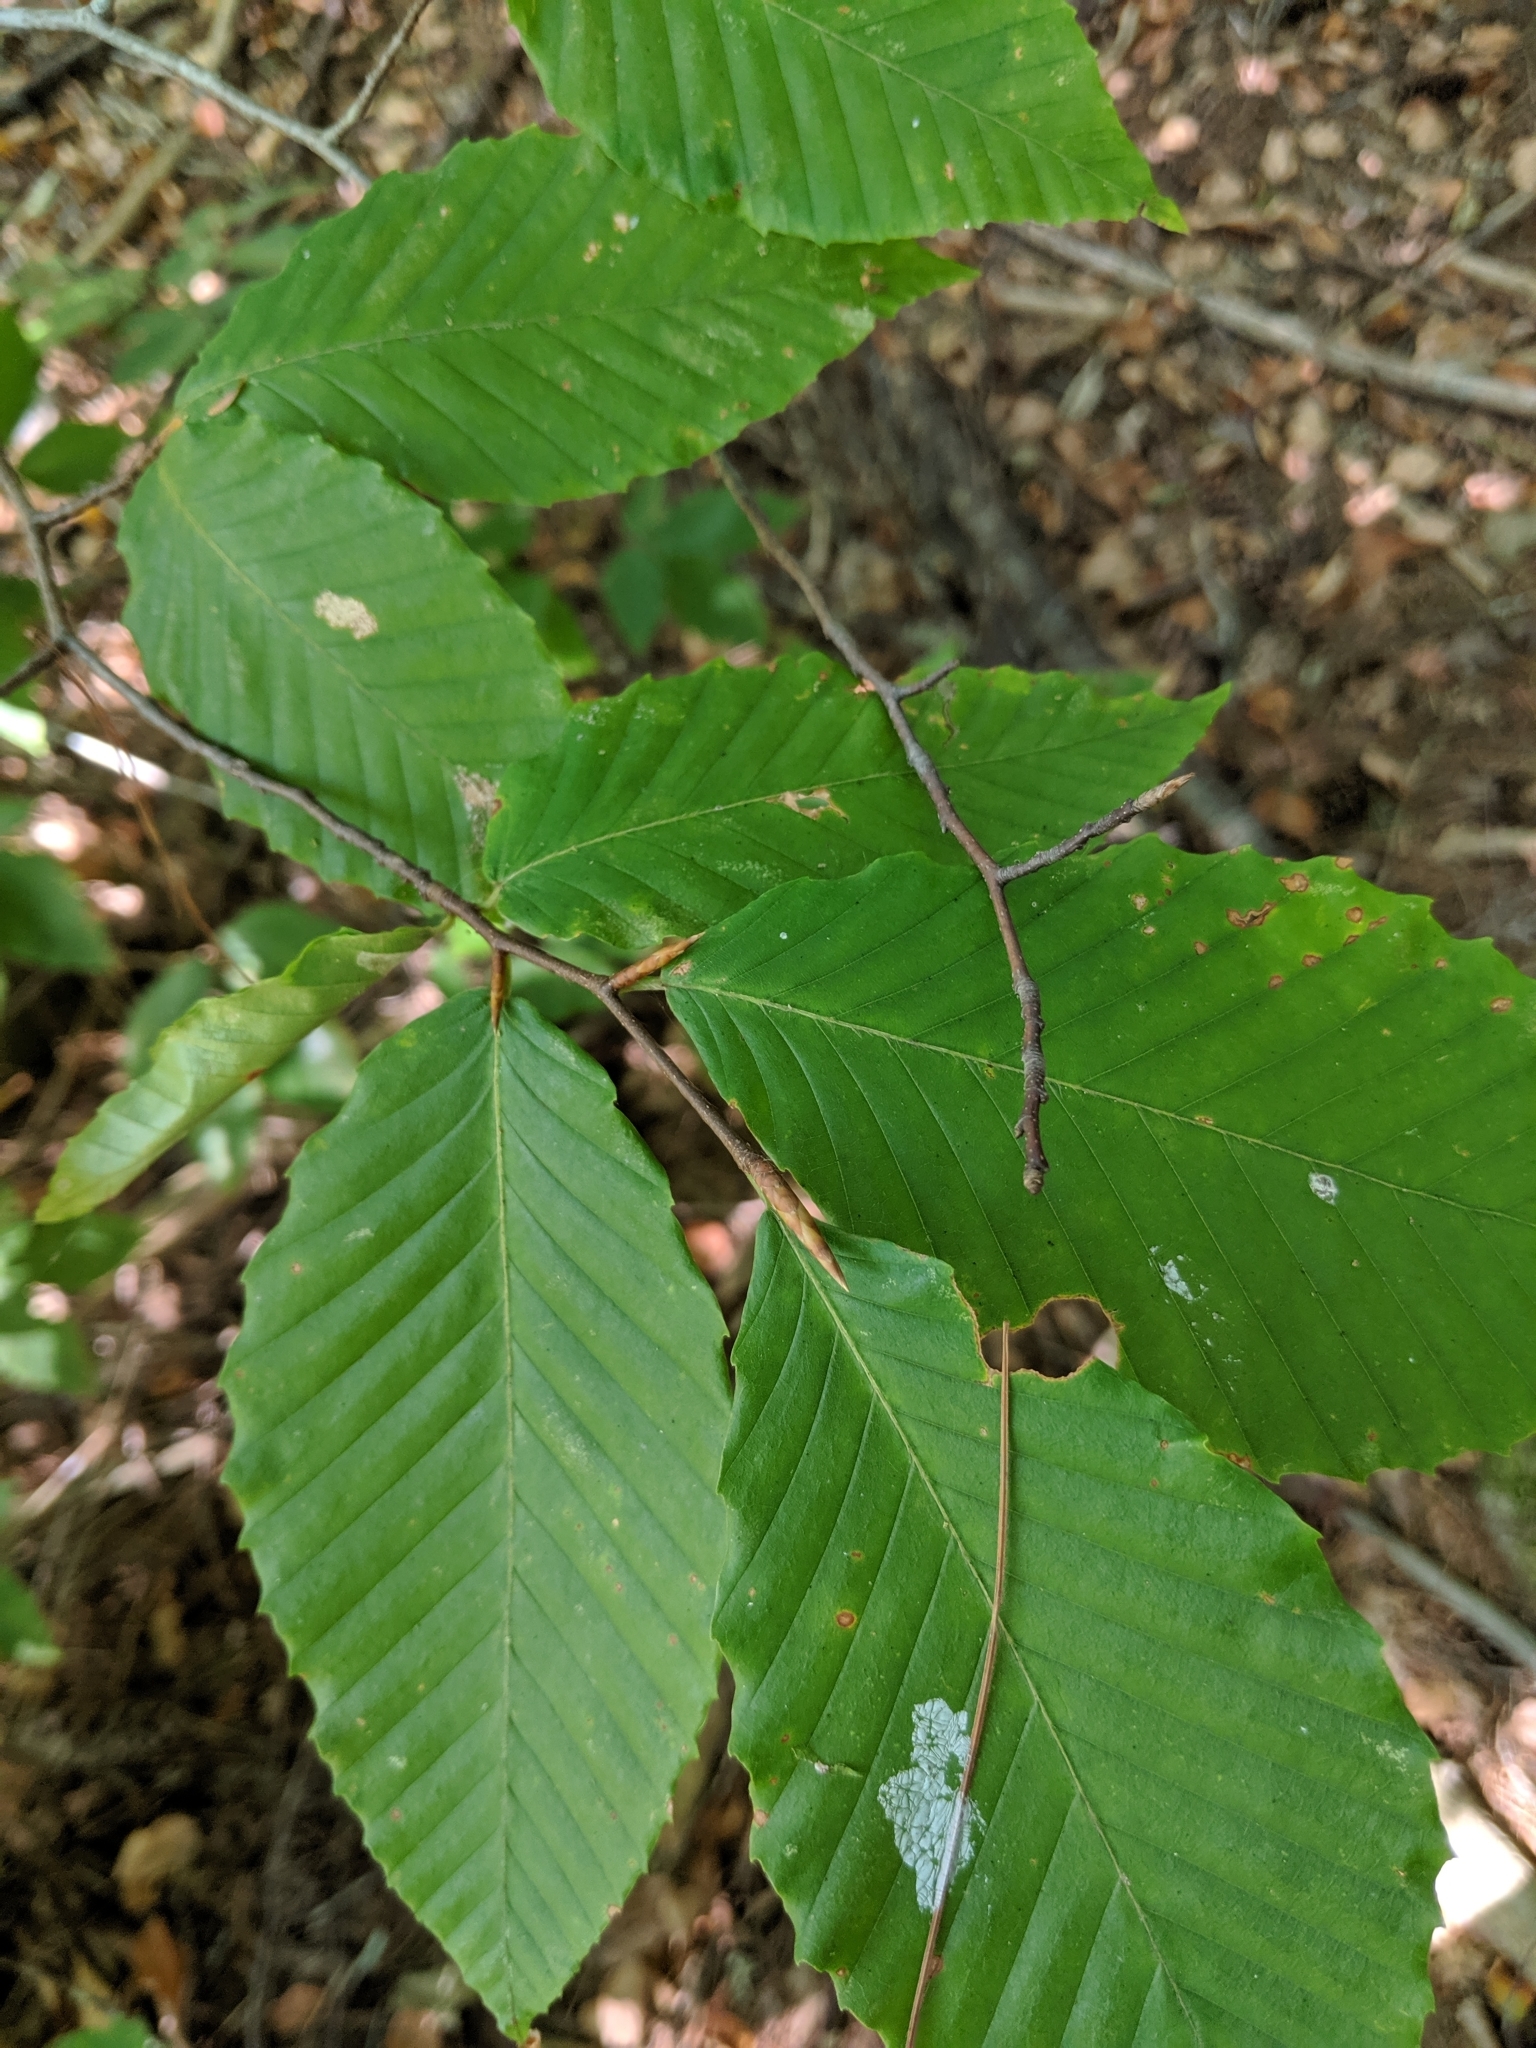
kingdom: Plantae
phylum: Tracheophyta
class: Magnoliopsida
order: Fagales
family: Fagaceae
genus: Fagus
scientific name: Fagus grandifolia
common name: American beech
